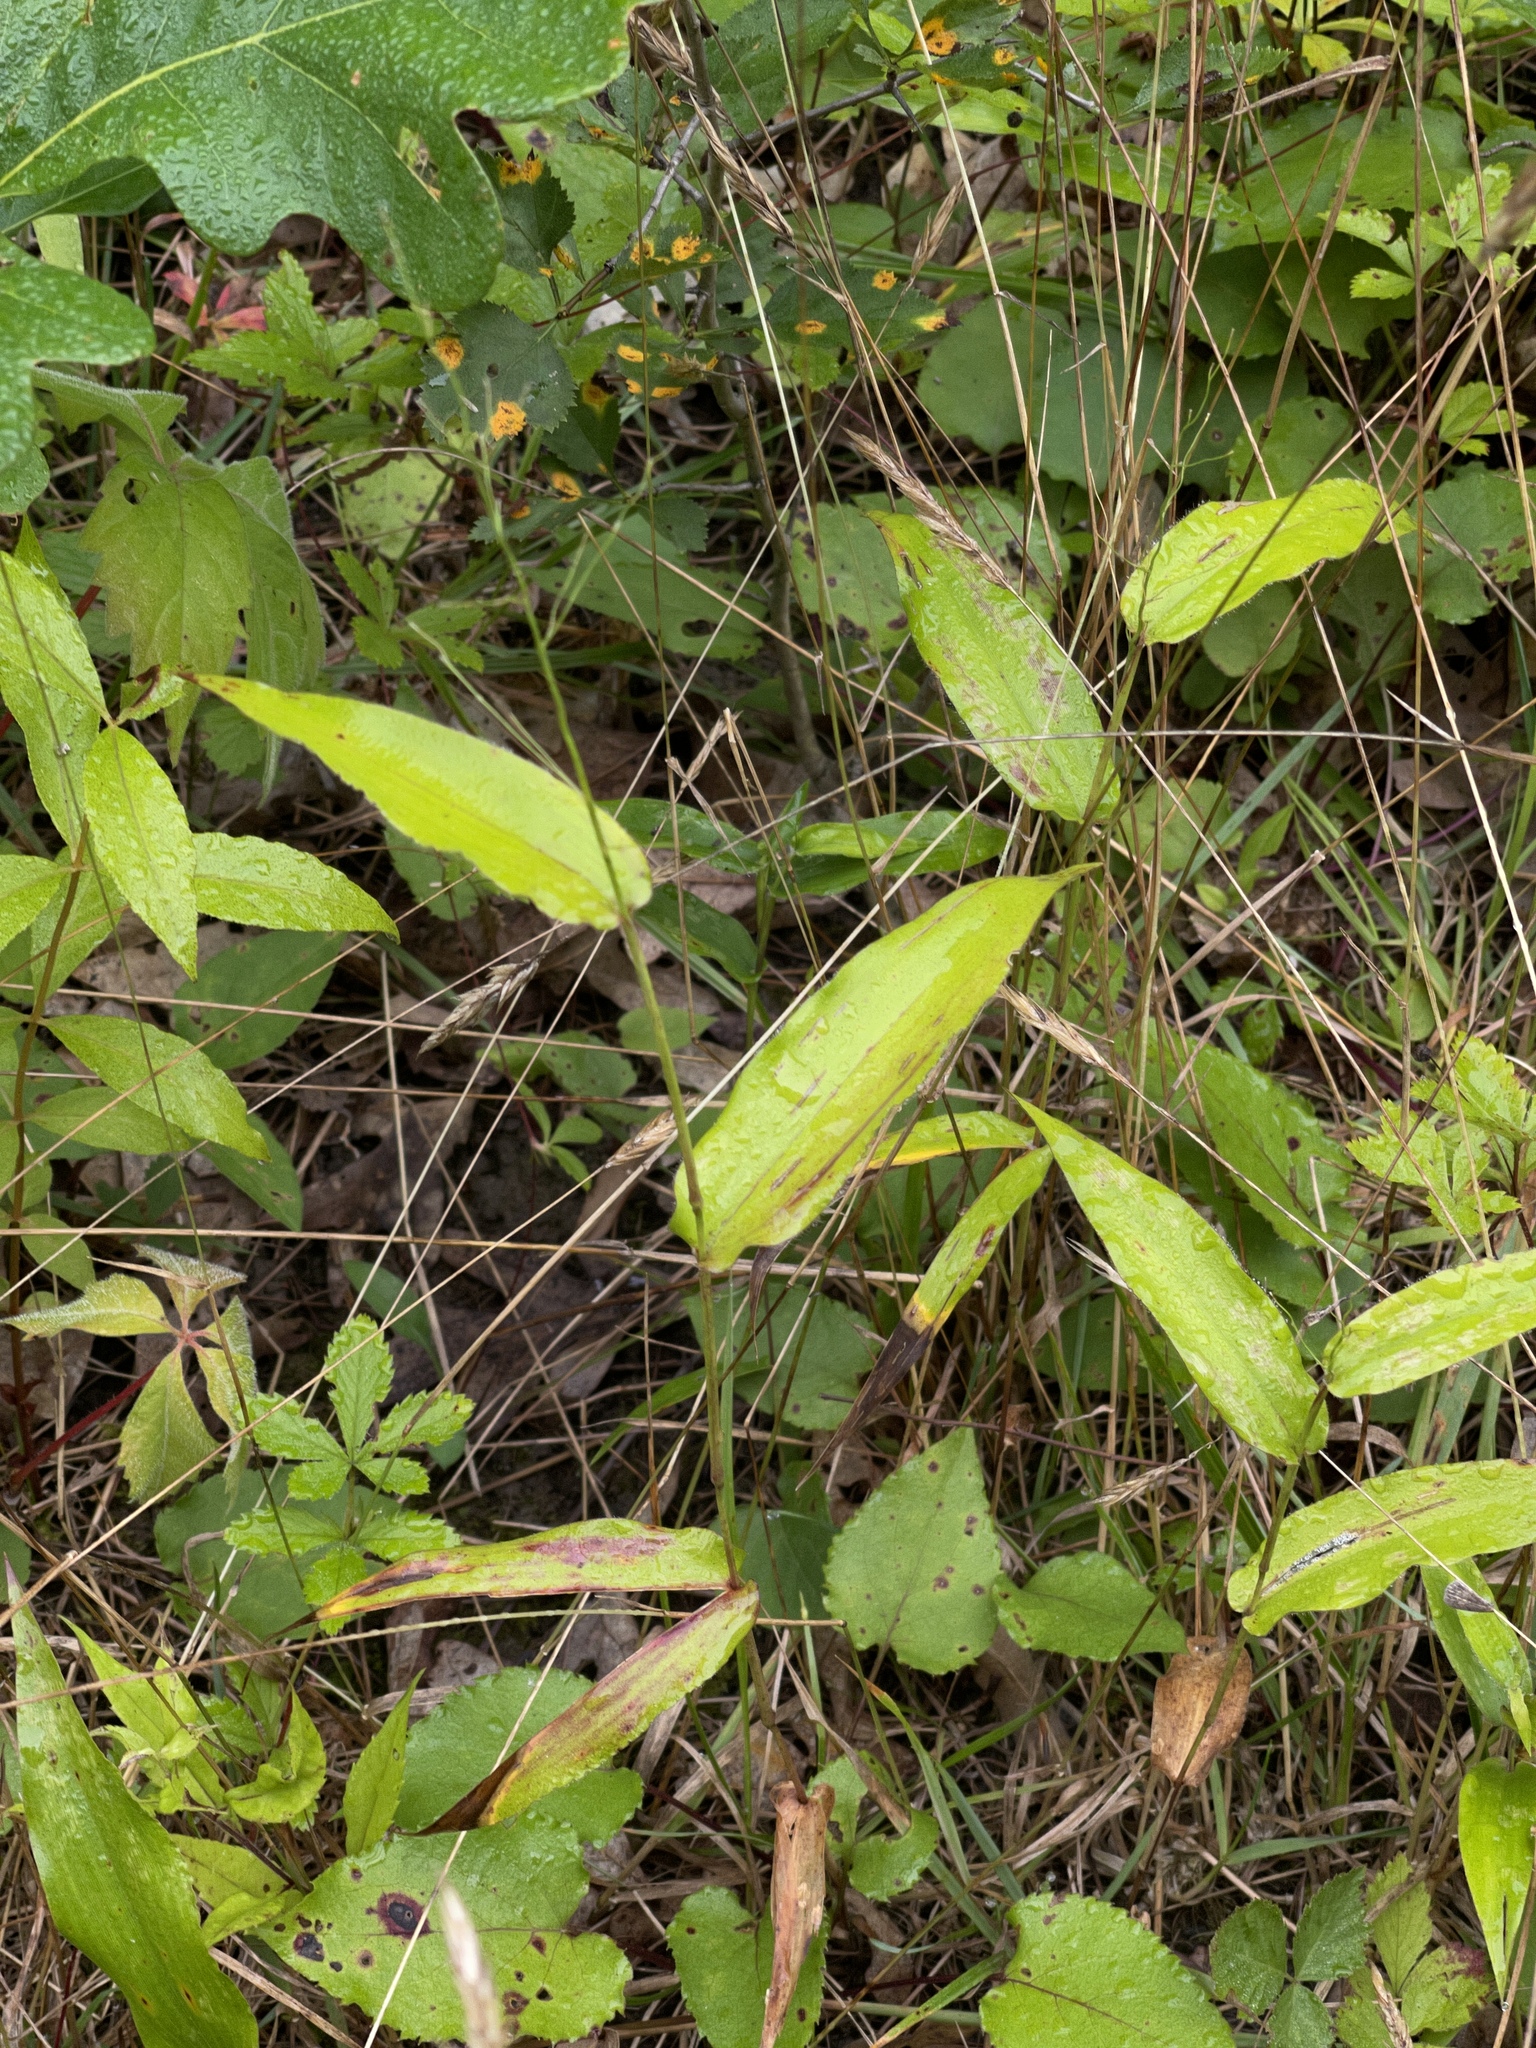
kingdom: Plantae
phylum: Tracheophyta
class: Liliopsida
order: Poales
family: Poaceae
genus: Dichanthelium
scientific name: Dichanthelium latifolium
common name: Broad-leaved panicgrass
